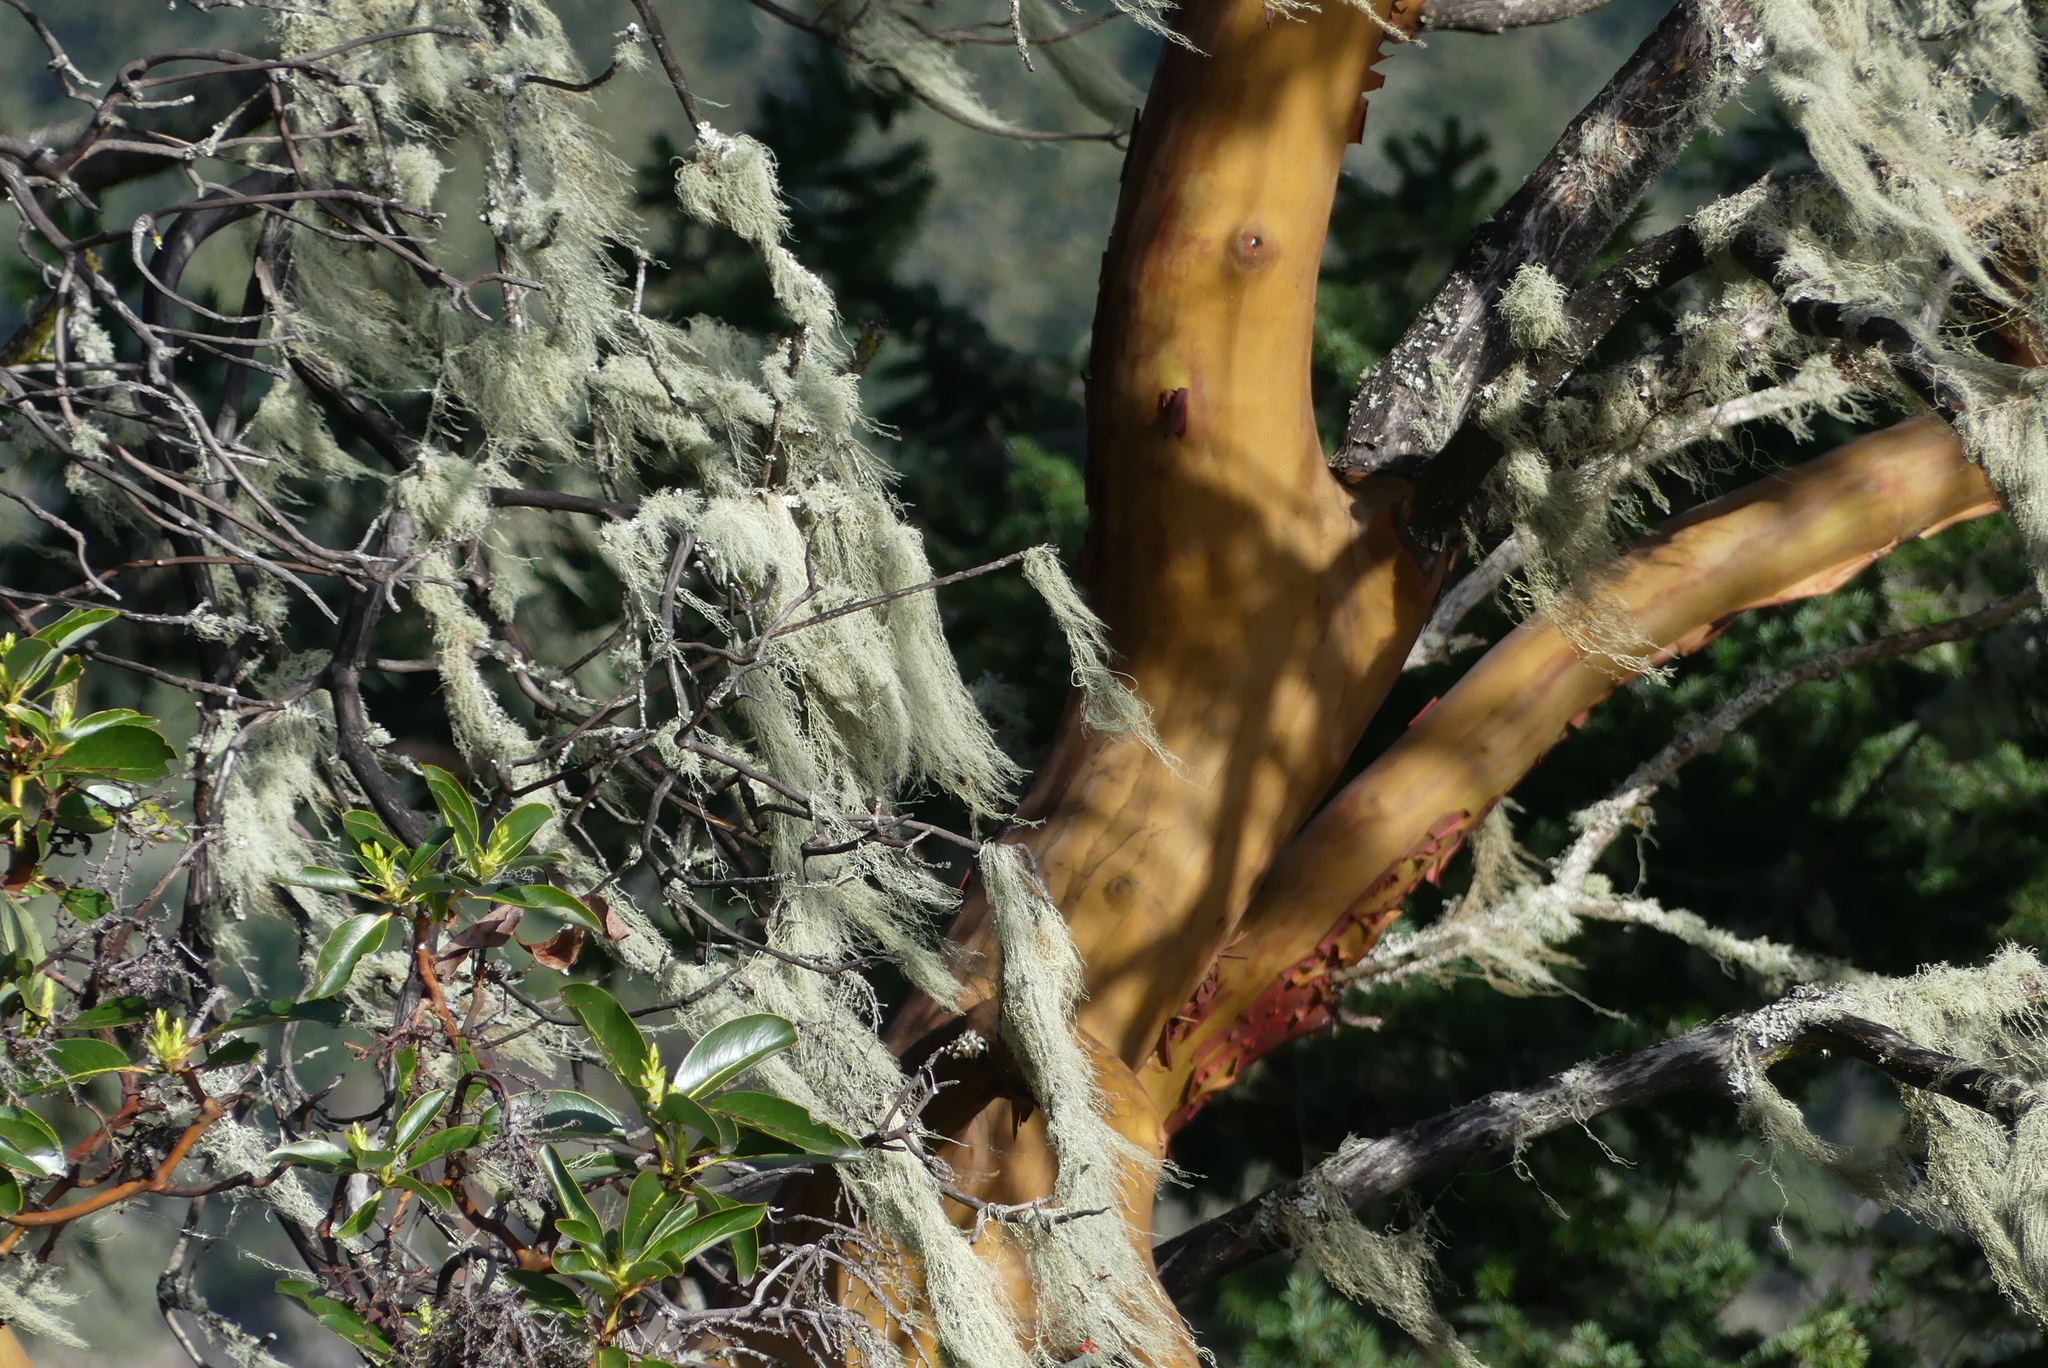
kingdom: Plantae
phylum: Tracheophyta
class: Magnoliopsida
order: Ericales
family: Ericaceae
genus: Arbutus
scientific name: Arbutus menziesii
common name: Pacific madrone
